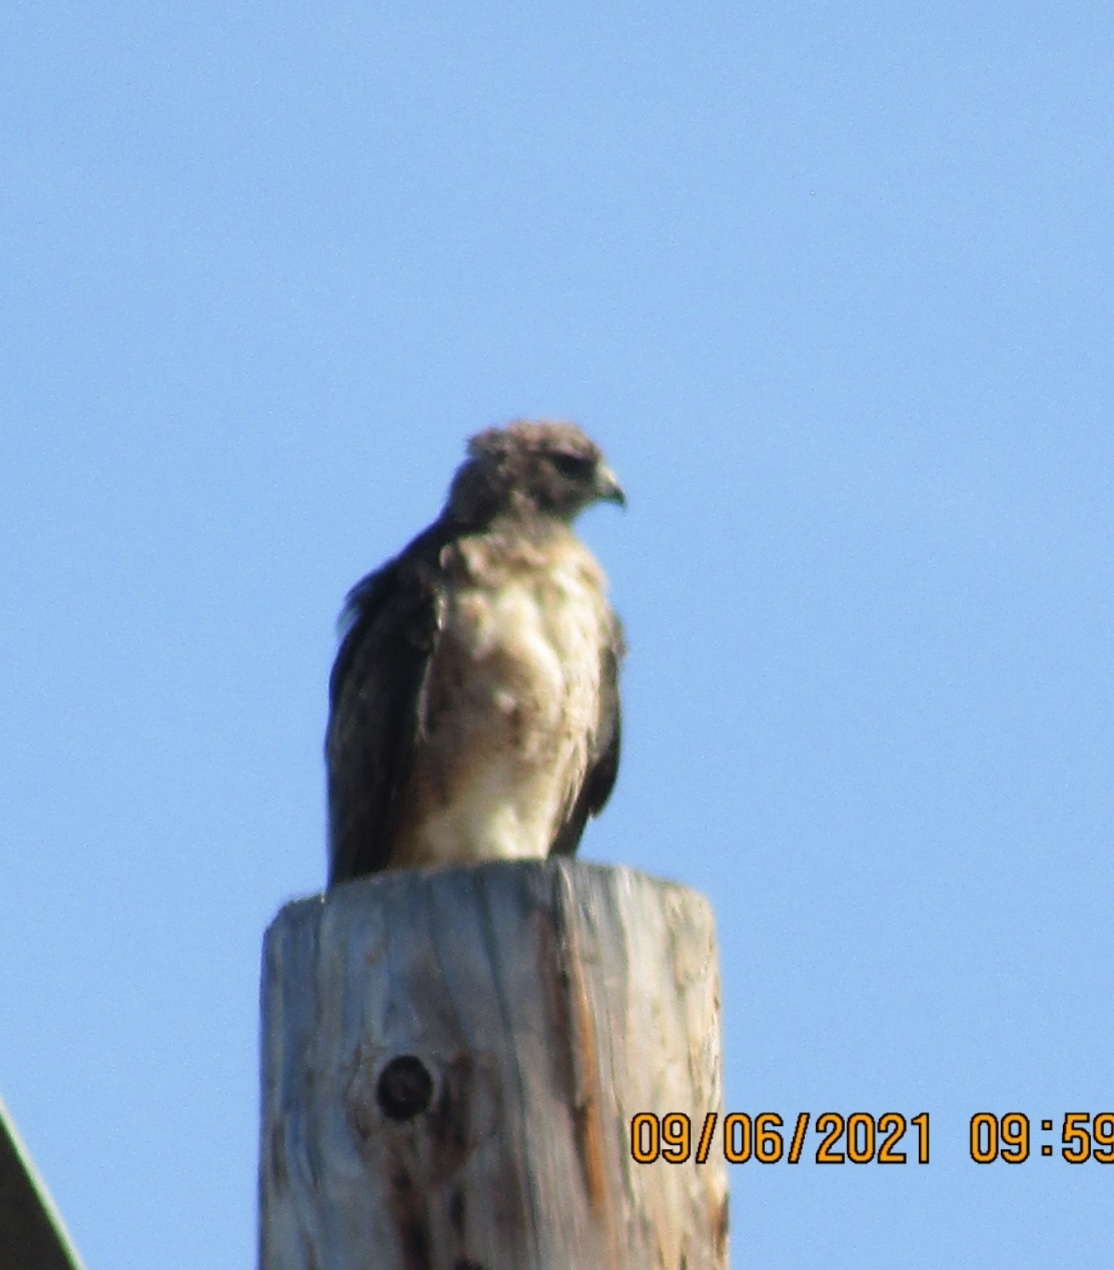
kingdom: Animalia
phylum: Chordata
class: Aves
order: Accipitriformes
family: Accipitridae
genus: Buteo
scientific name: Buteo jamaicensis
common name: Red-tailed hawk
